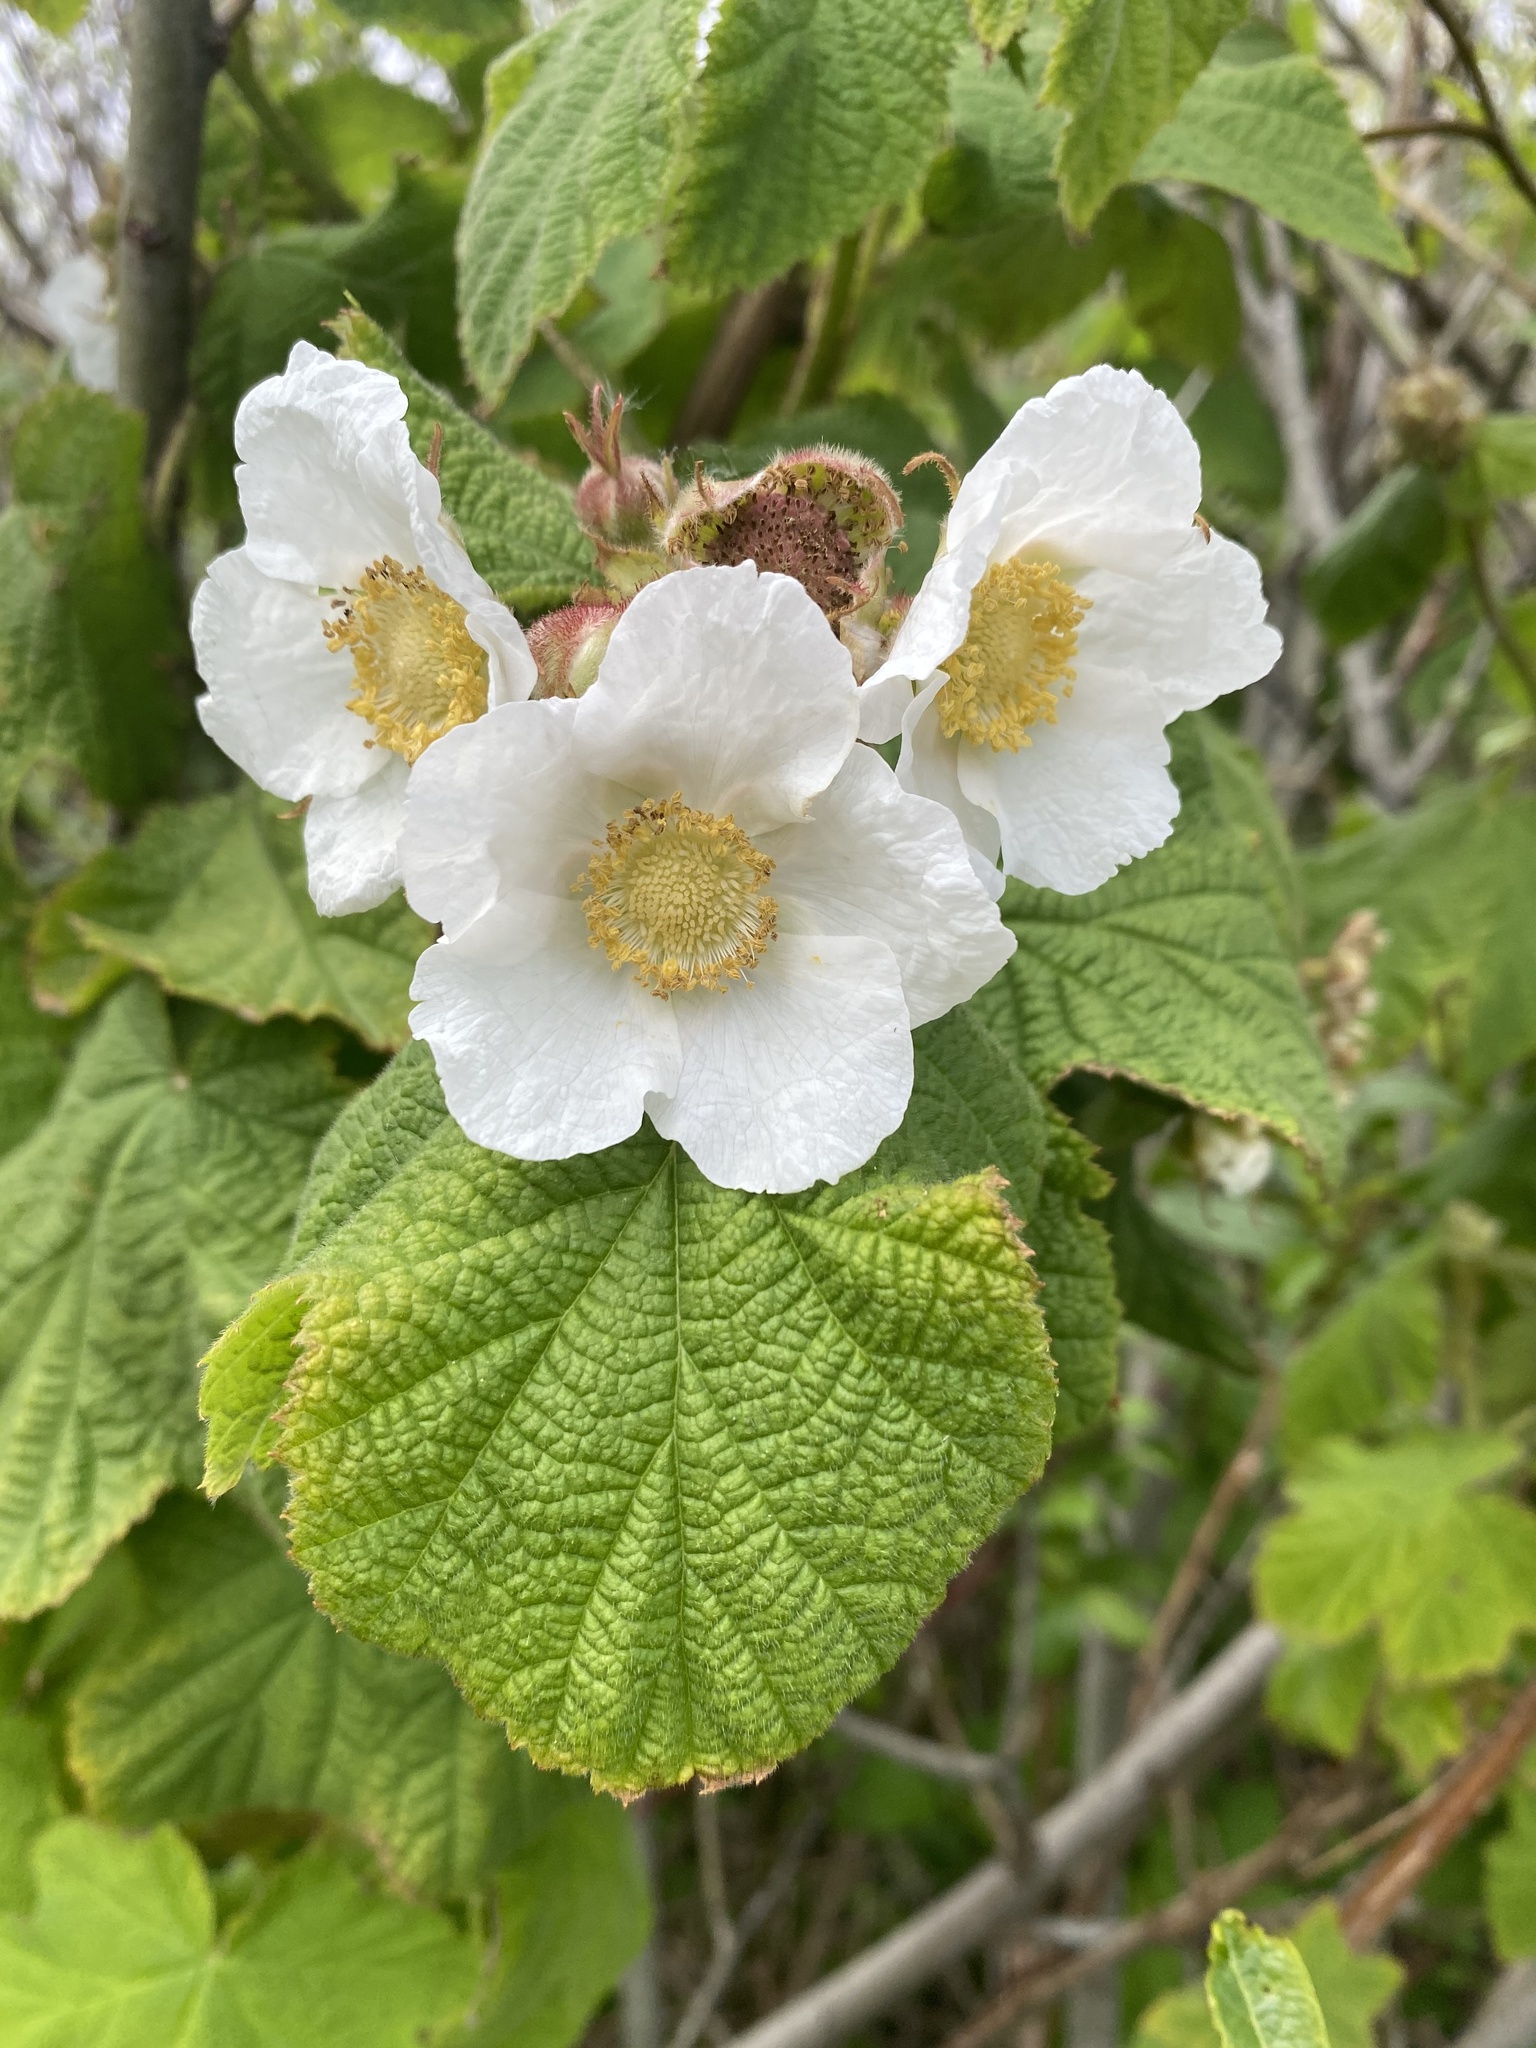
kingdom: Plantae
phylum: Tracheophyta
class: Magnoliopsida
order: Rosales
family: Rosaceae
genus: Rubus
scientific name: Rubus parviflorus
